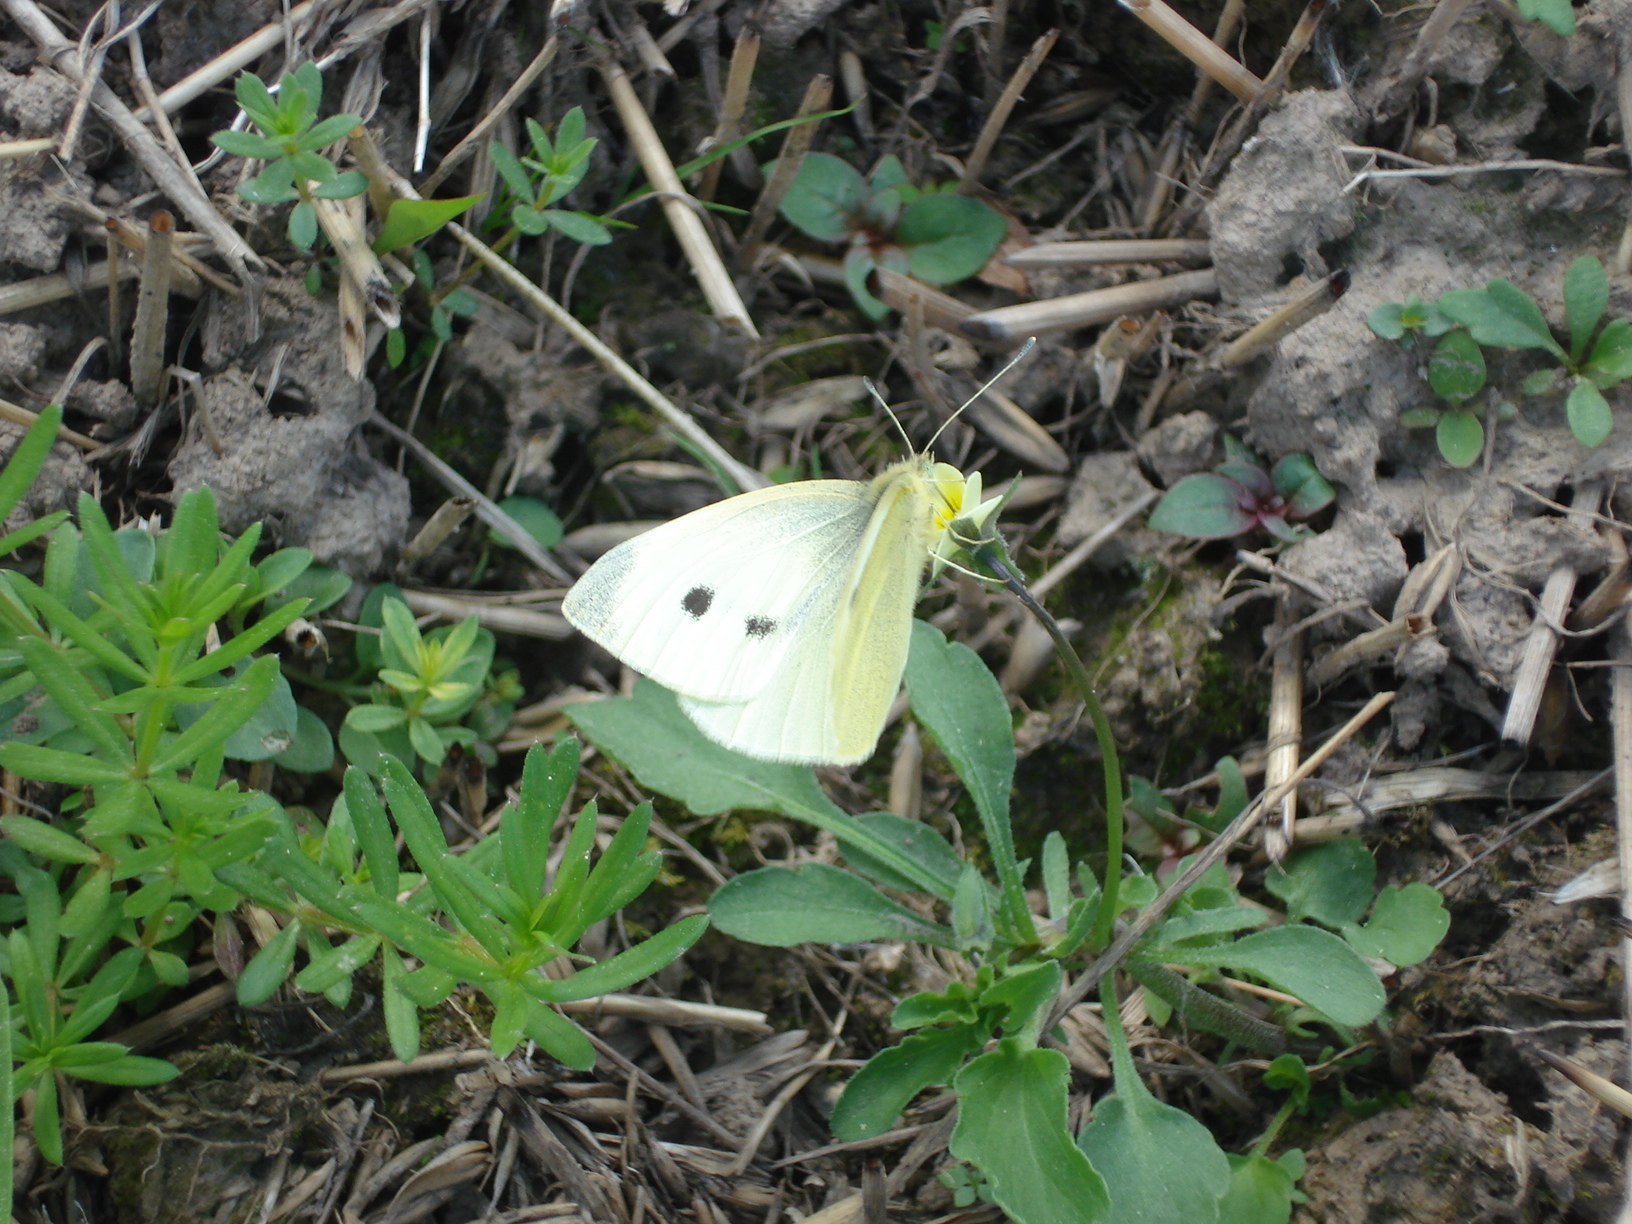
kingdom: Animalia
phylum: Arthropoda
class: Insecta
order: Lepidoptera
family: Pieridae
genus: Pieris
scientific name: Pieris rapae
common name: Small white
